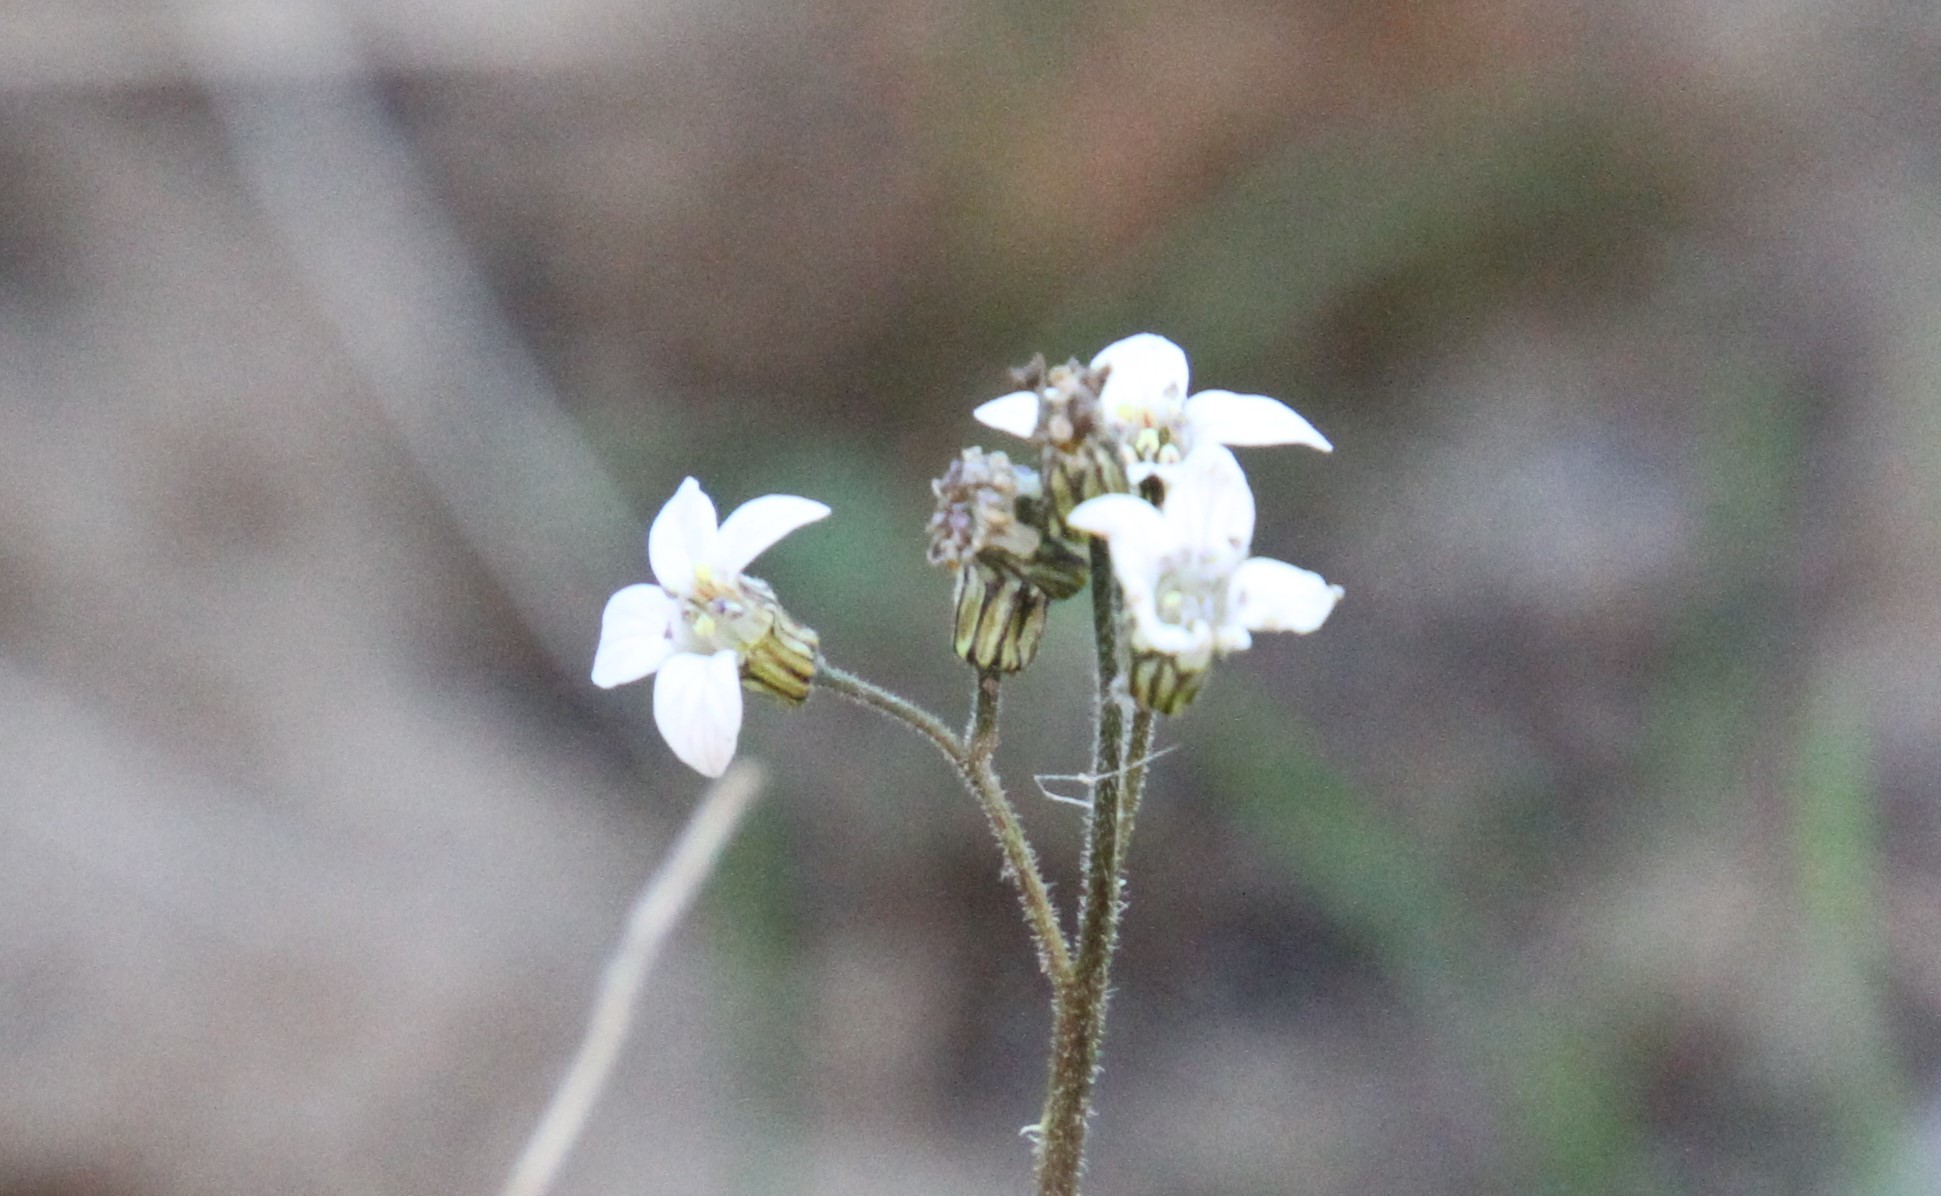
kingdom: Plantae
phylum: Tracheophyta
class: Magnoliopsida
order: Saxifragales
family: Saxifragaceae
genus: Jepsonia
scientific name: Jepsonia parryi
